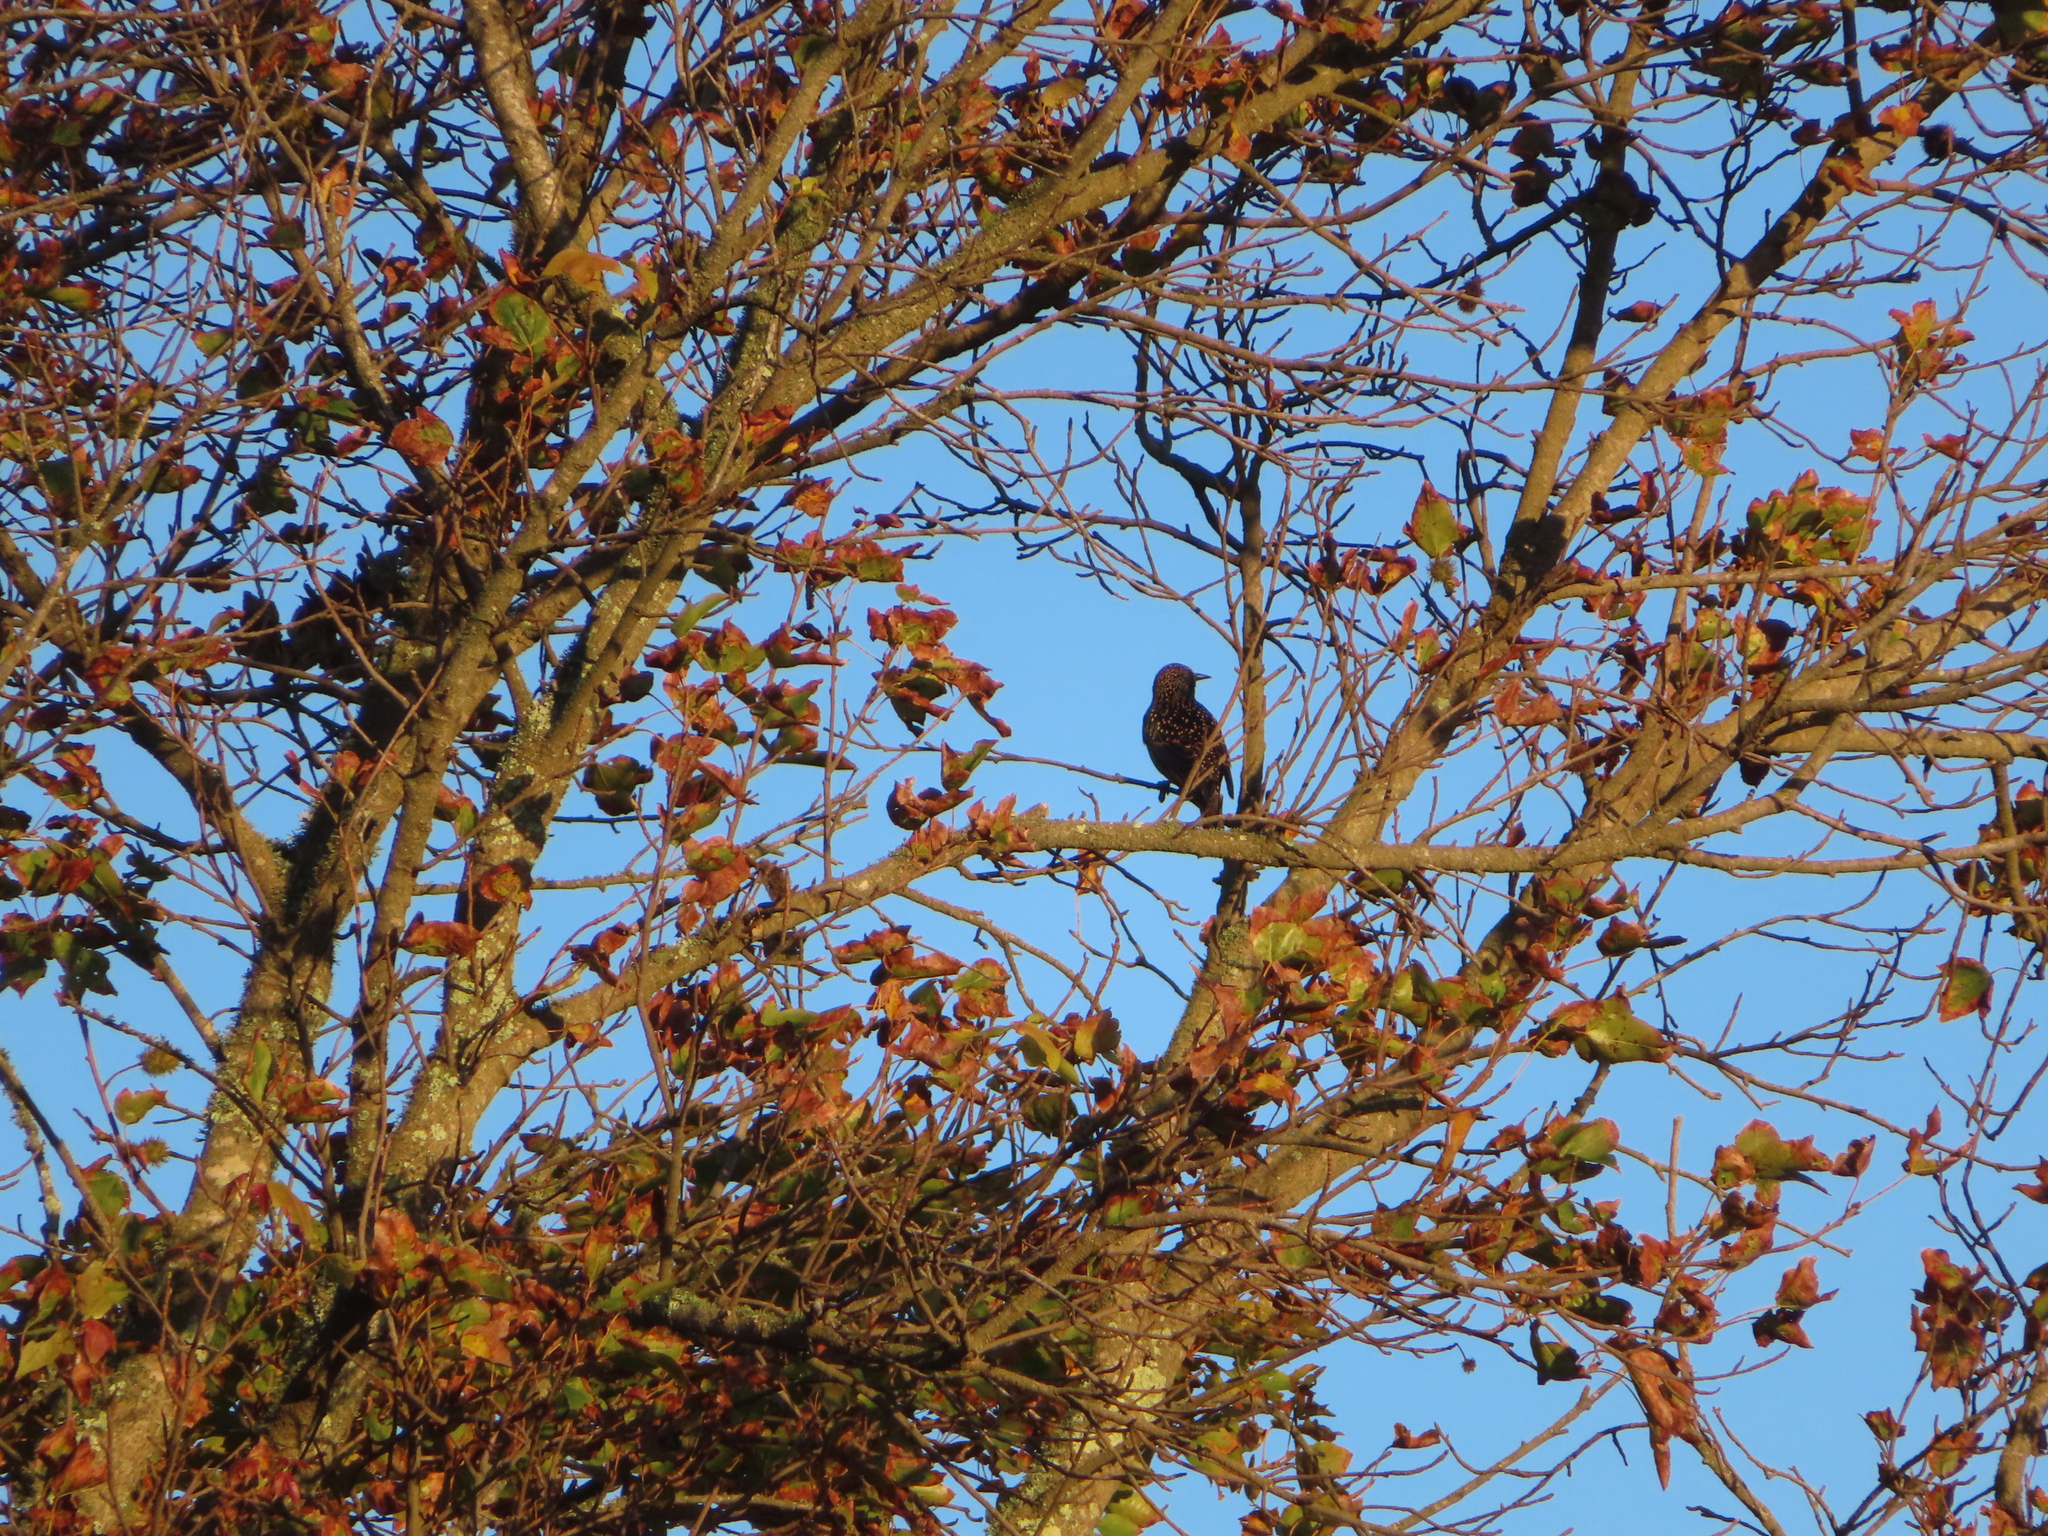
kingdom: Animalia
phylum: Chordata
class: Aves
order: Passeriformes
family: Sturnidae
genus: Sturnus
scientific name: Sturnus vulgaris
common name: Common starling
